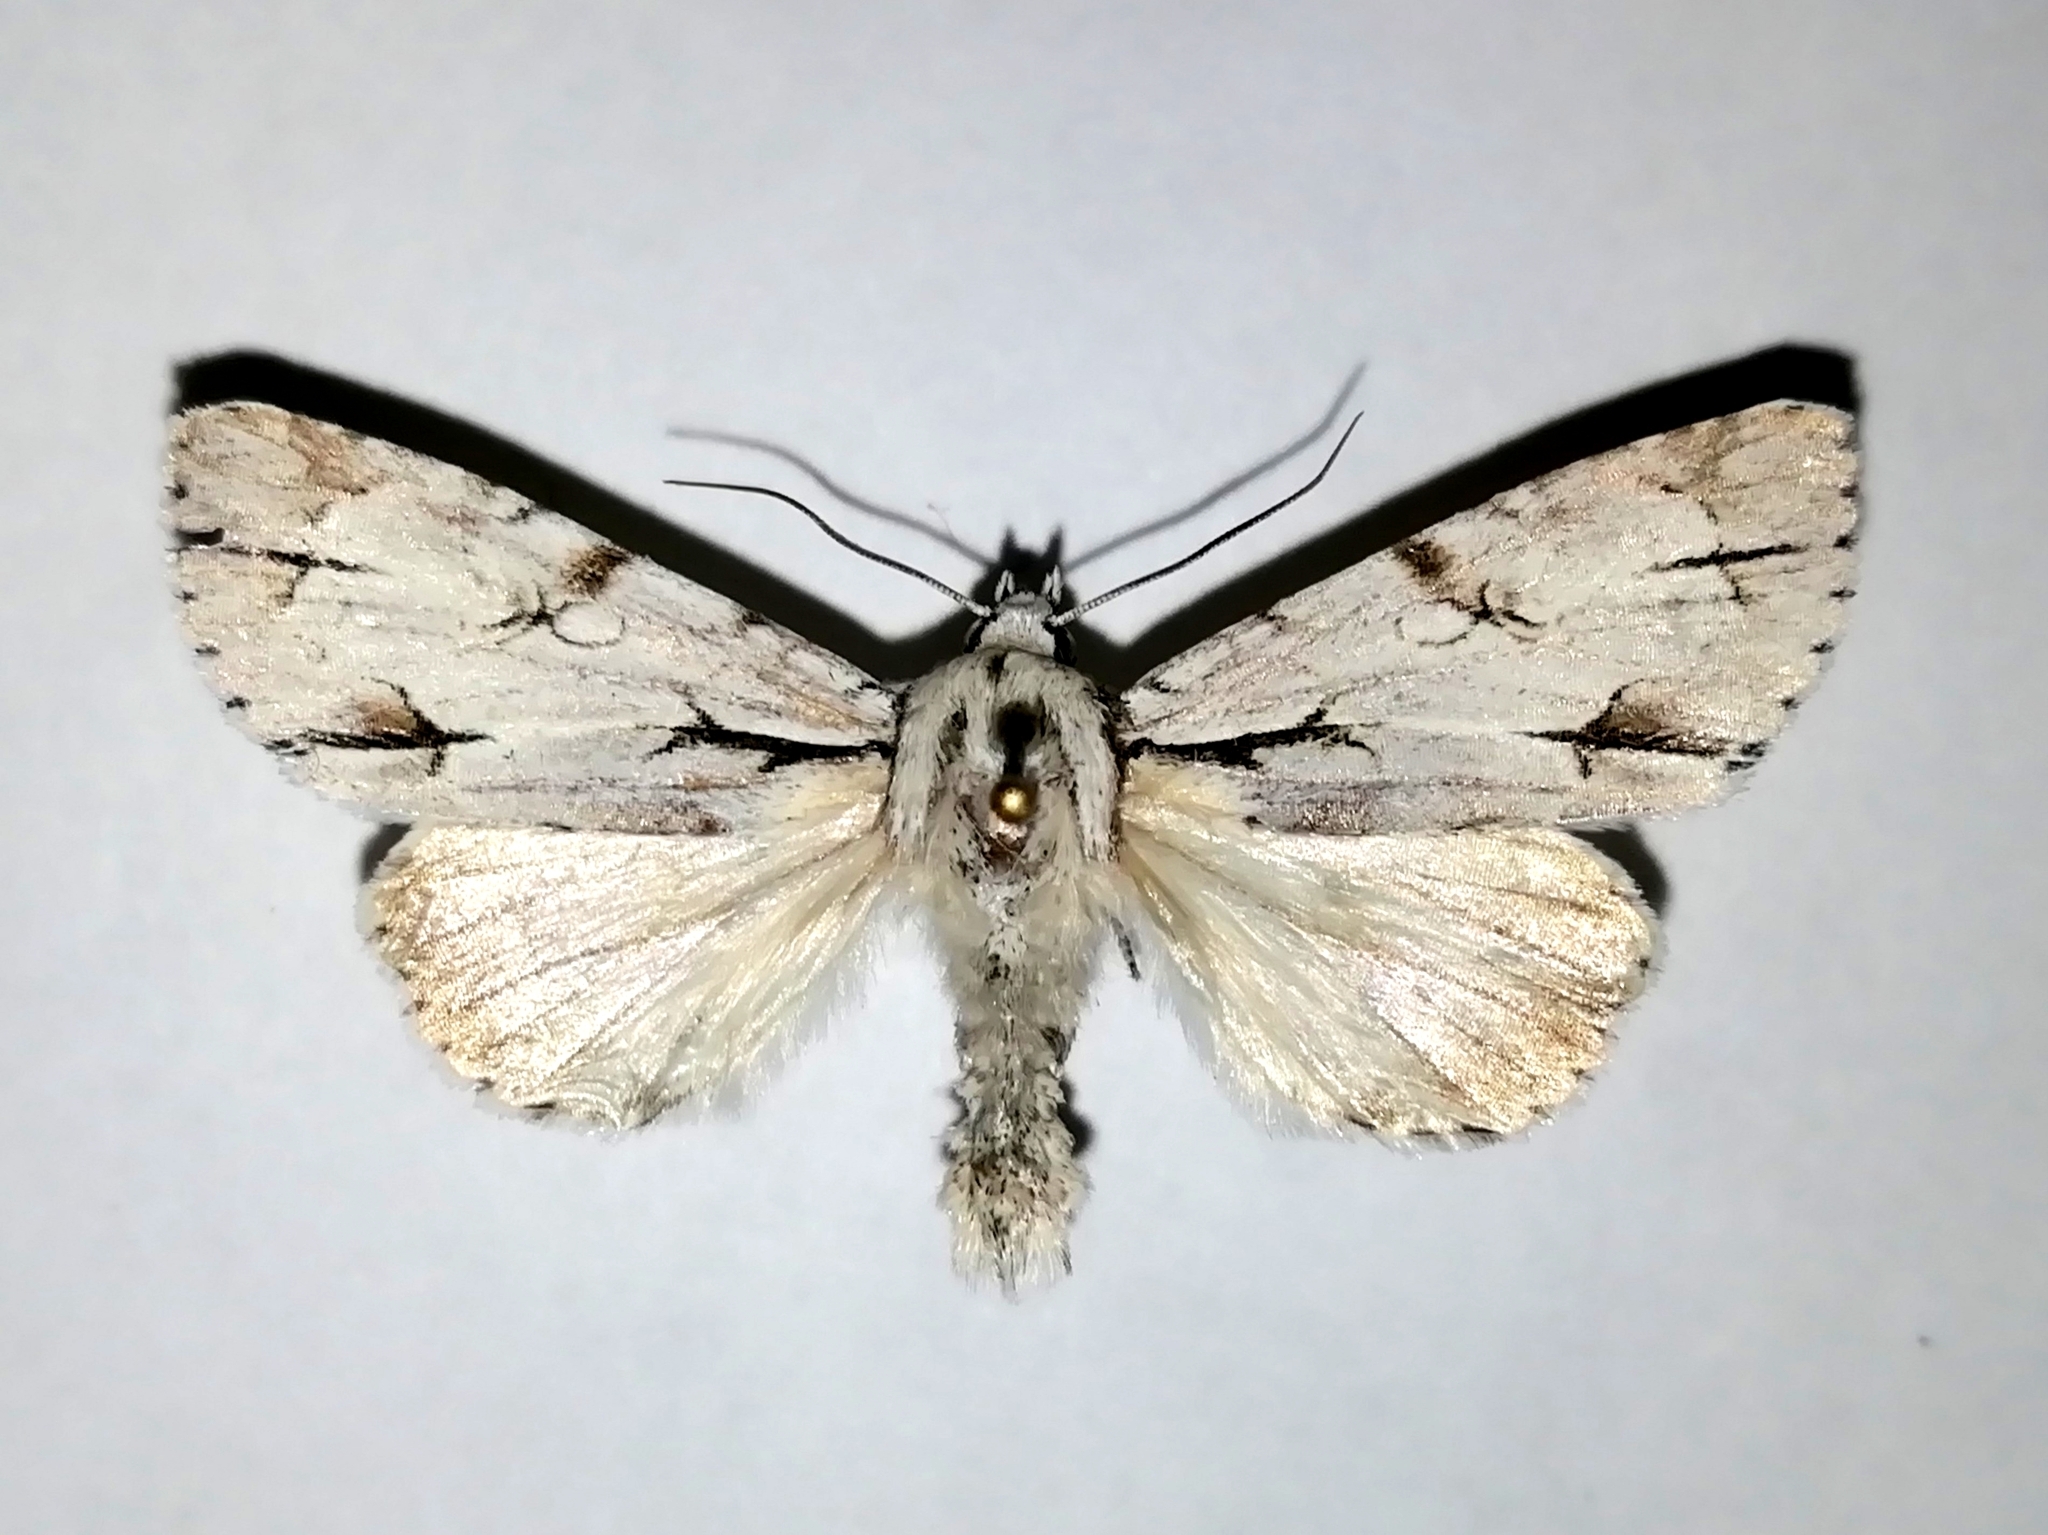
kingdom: Animalia
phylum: Arthropoda
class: Insecta
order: Lepidoptera
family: Noctuidae
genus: Acronicta
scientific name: Acronicta psi
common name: Grey dagger
